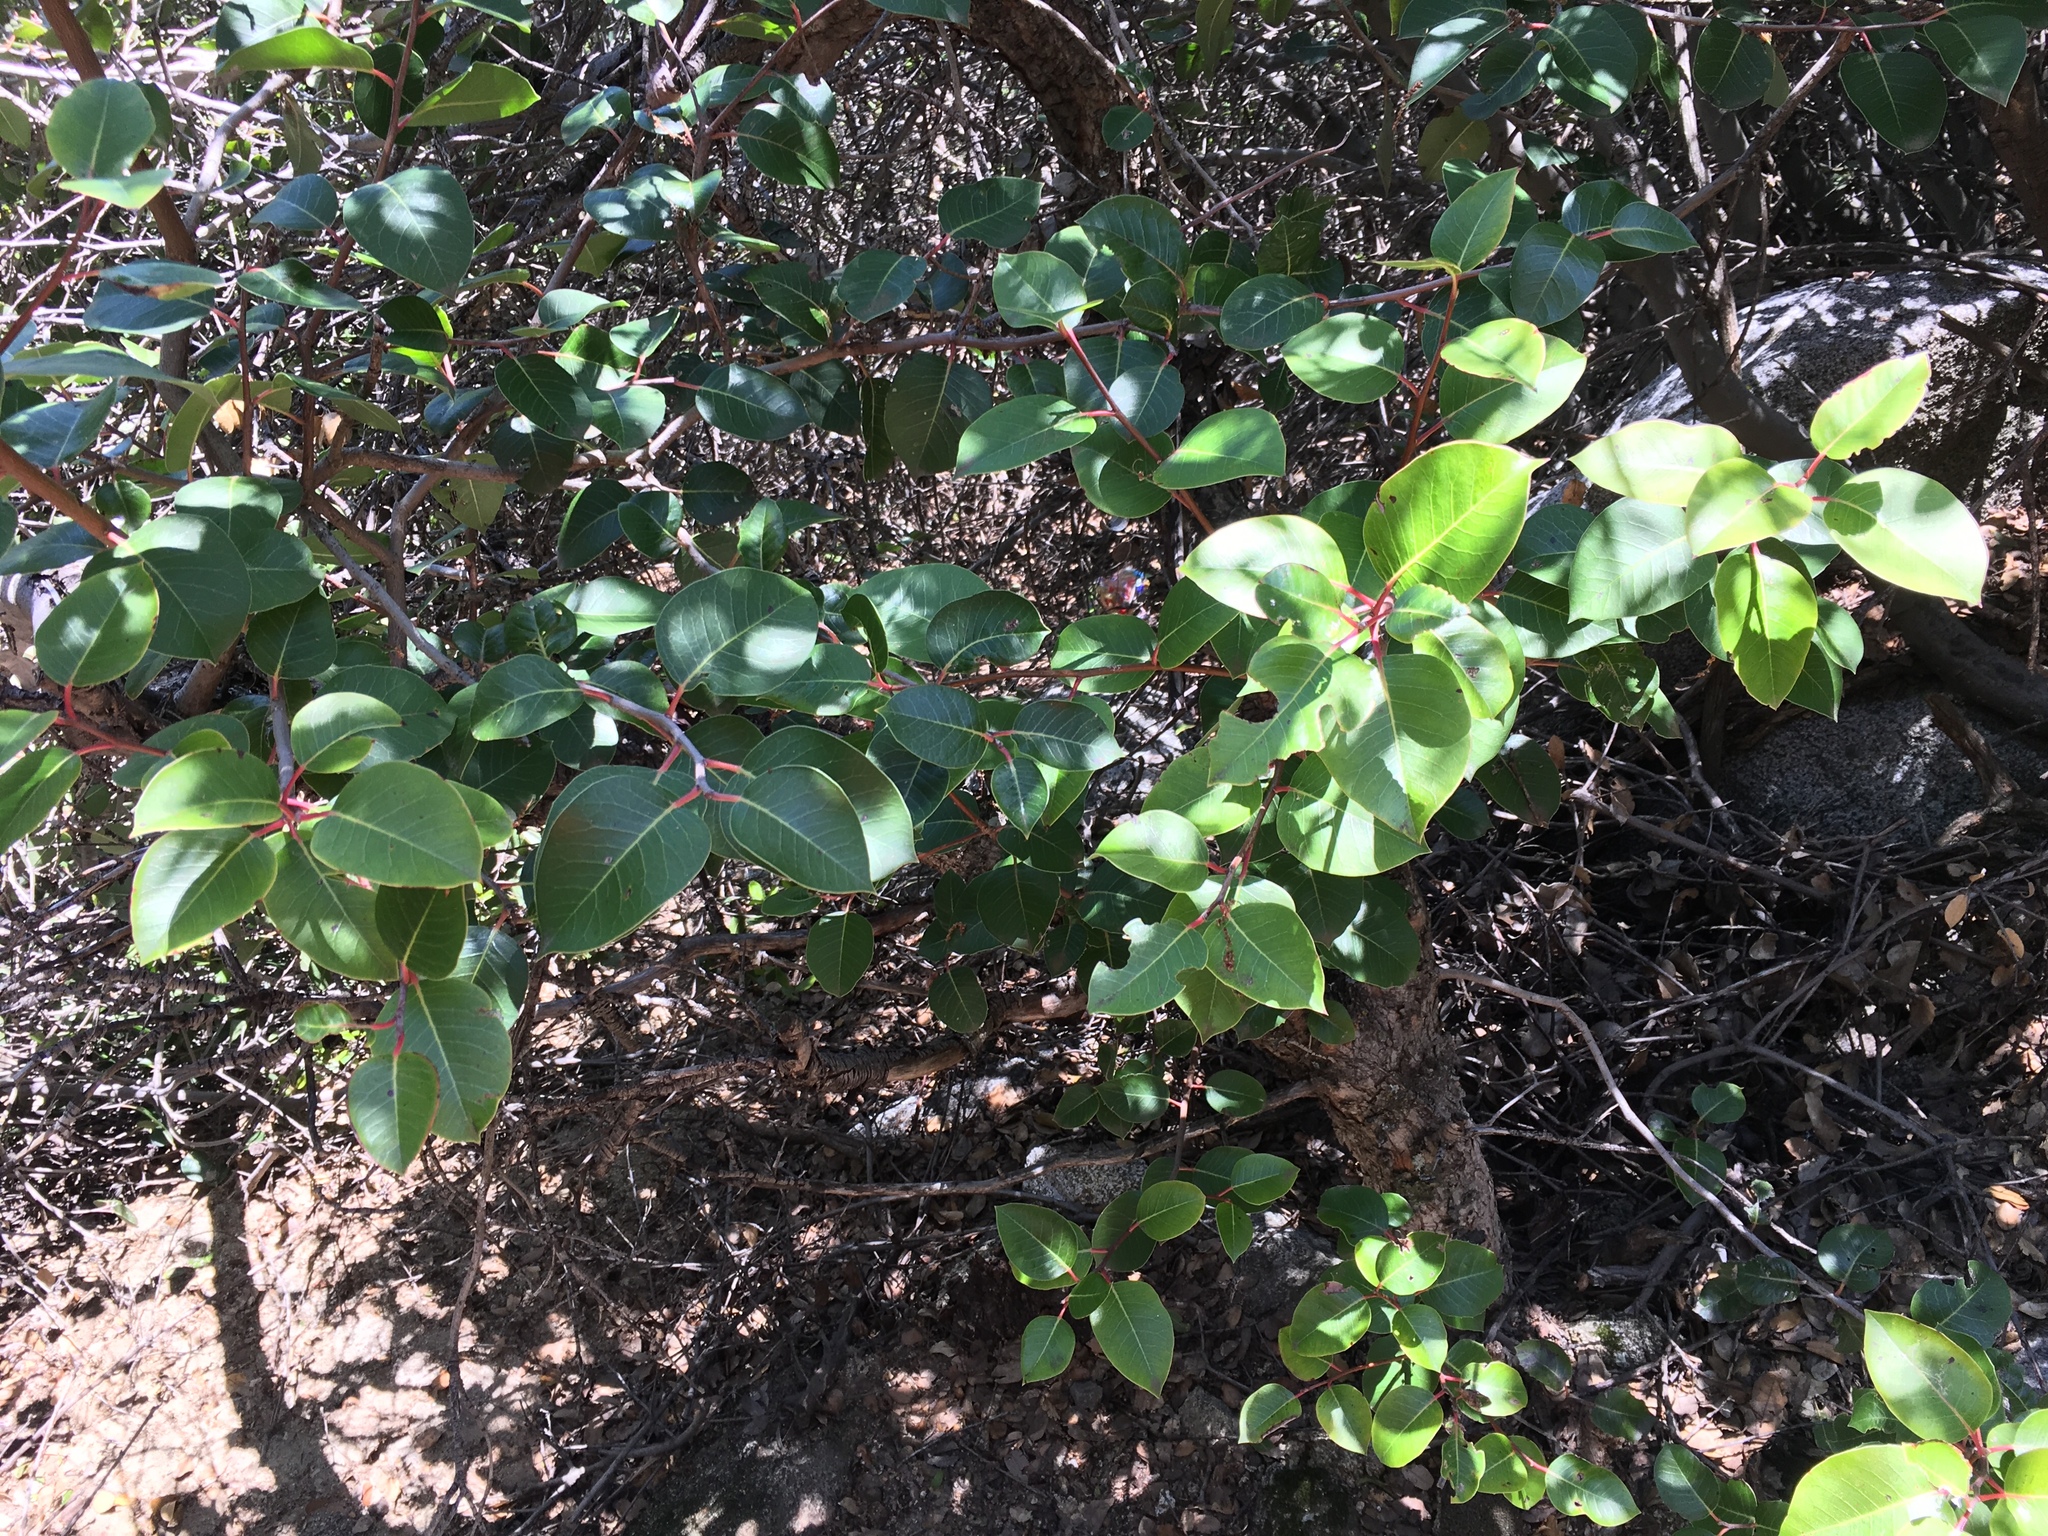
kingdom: Plantae
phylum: Tracheophyta
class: Magnoliopsida
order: Sapindales
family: Anacardiaceae
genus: Rhus
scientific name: Rhus ovata
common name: Sugar sumac
